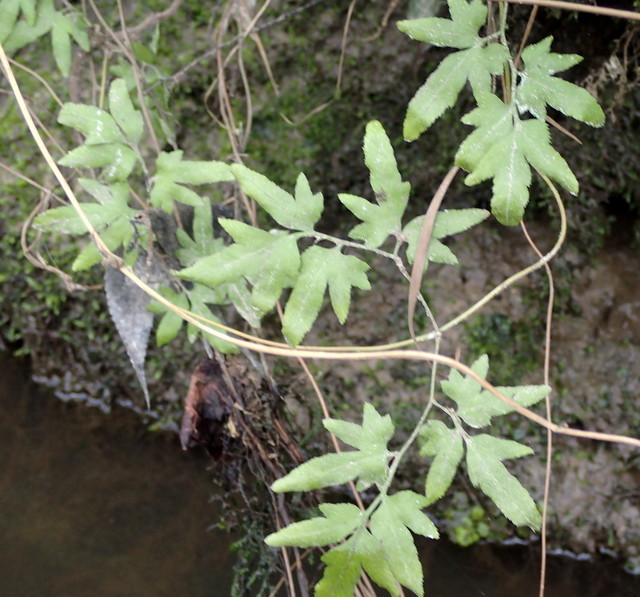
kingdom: Plantae
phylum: Tracheophyta
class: Polypodiopsida
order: Schizaeales
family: Lygodiaceae
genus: Lygodium
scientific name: Lygodium japonicum
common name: Japanese climbing fern
